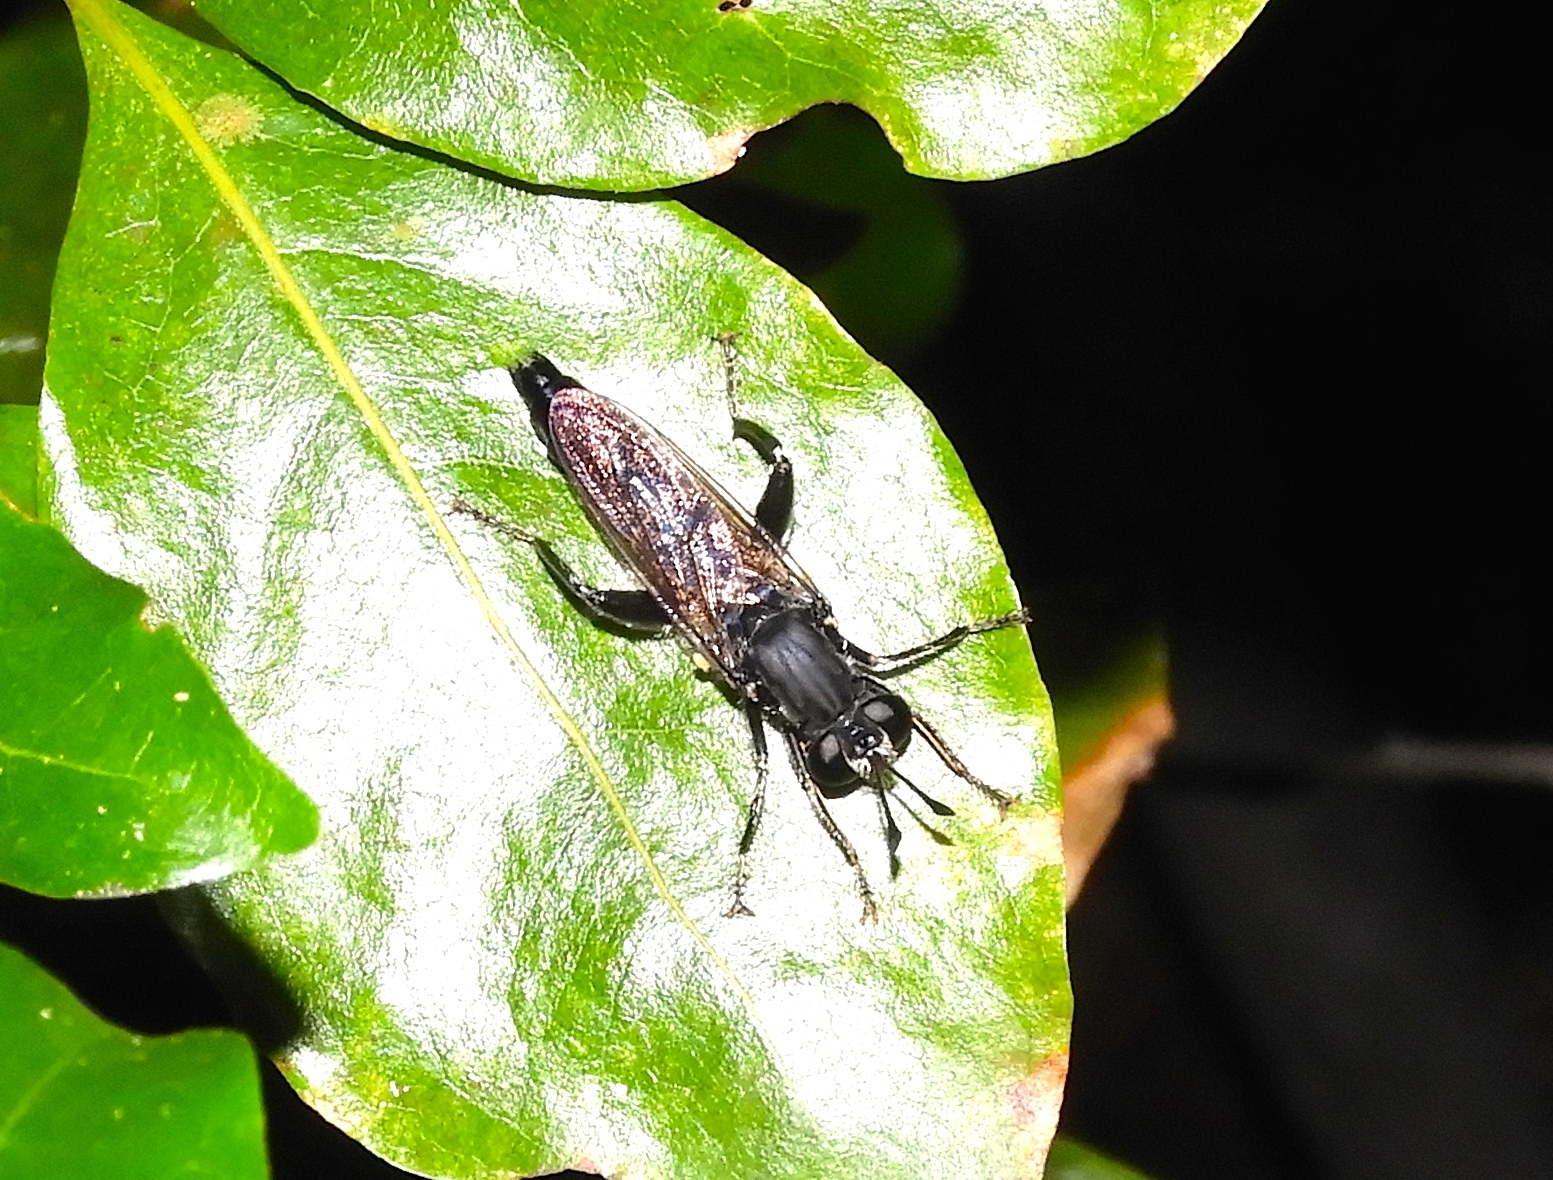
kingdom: Animalia
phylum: Arthropoda
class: Insecta
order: Diptera
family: Mydidae
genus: Mydas
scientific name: Mydas
